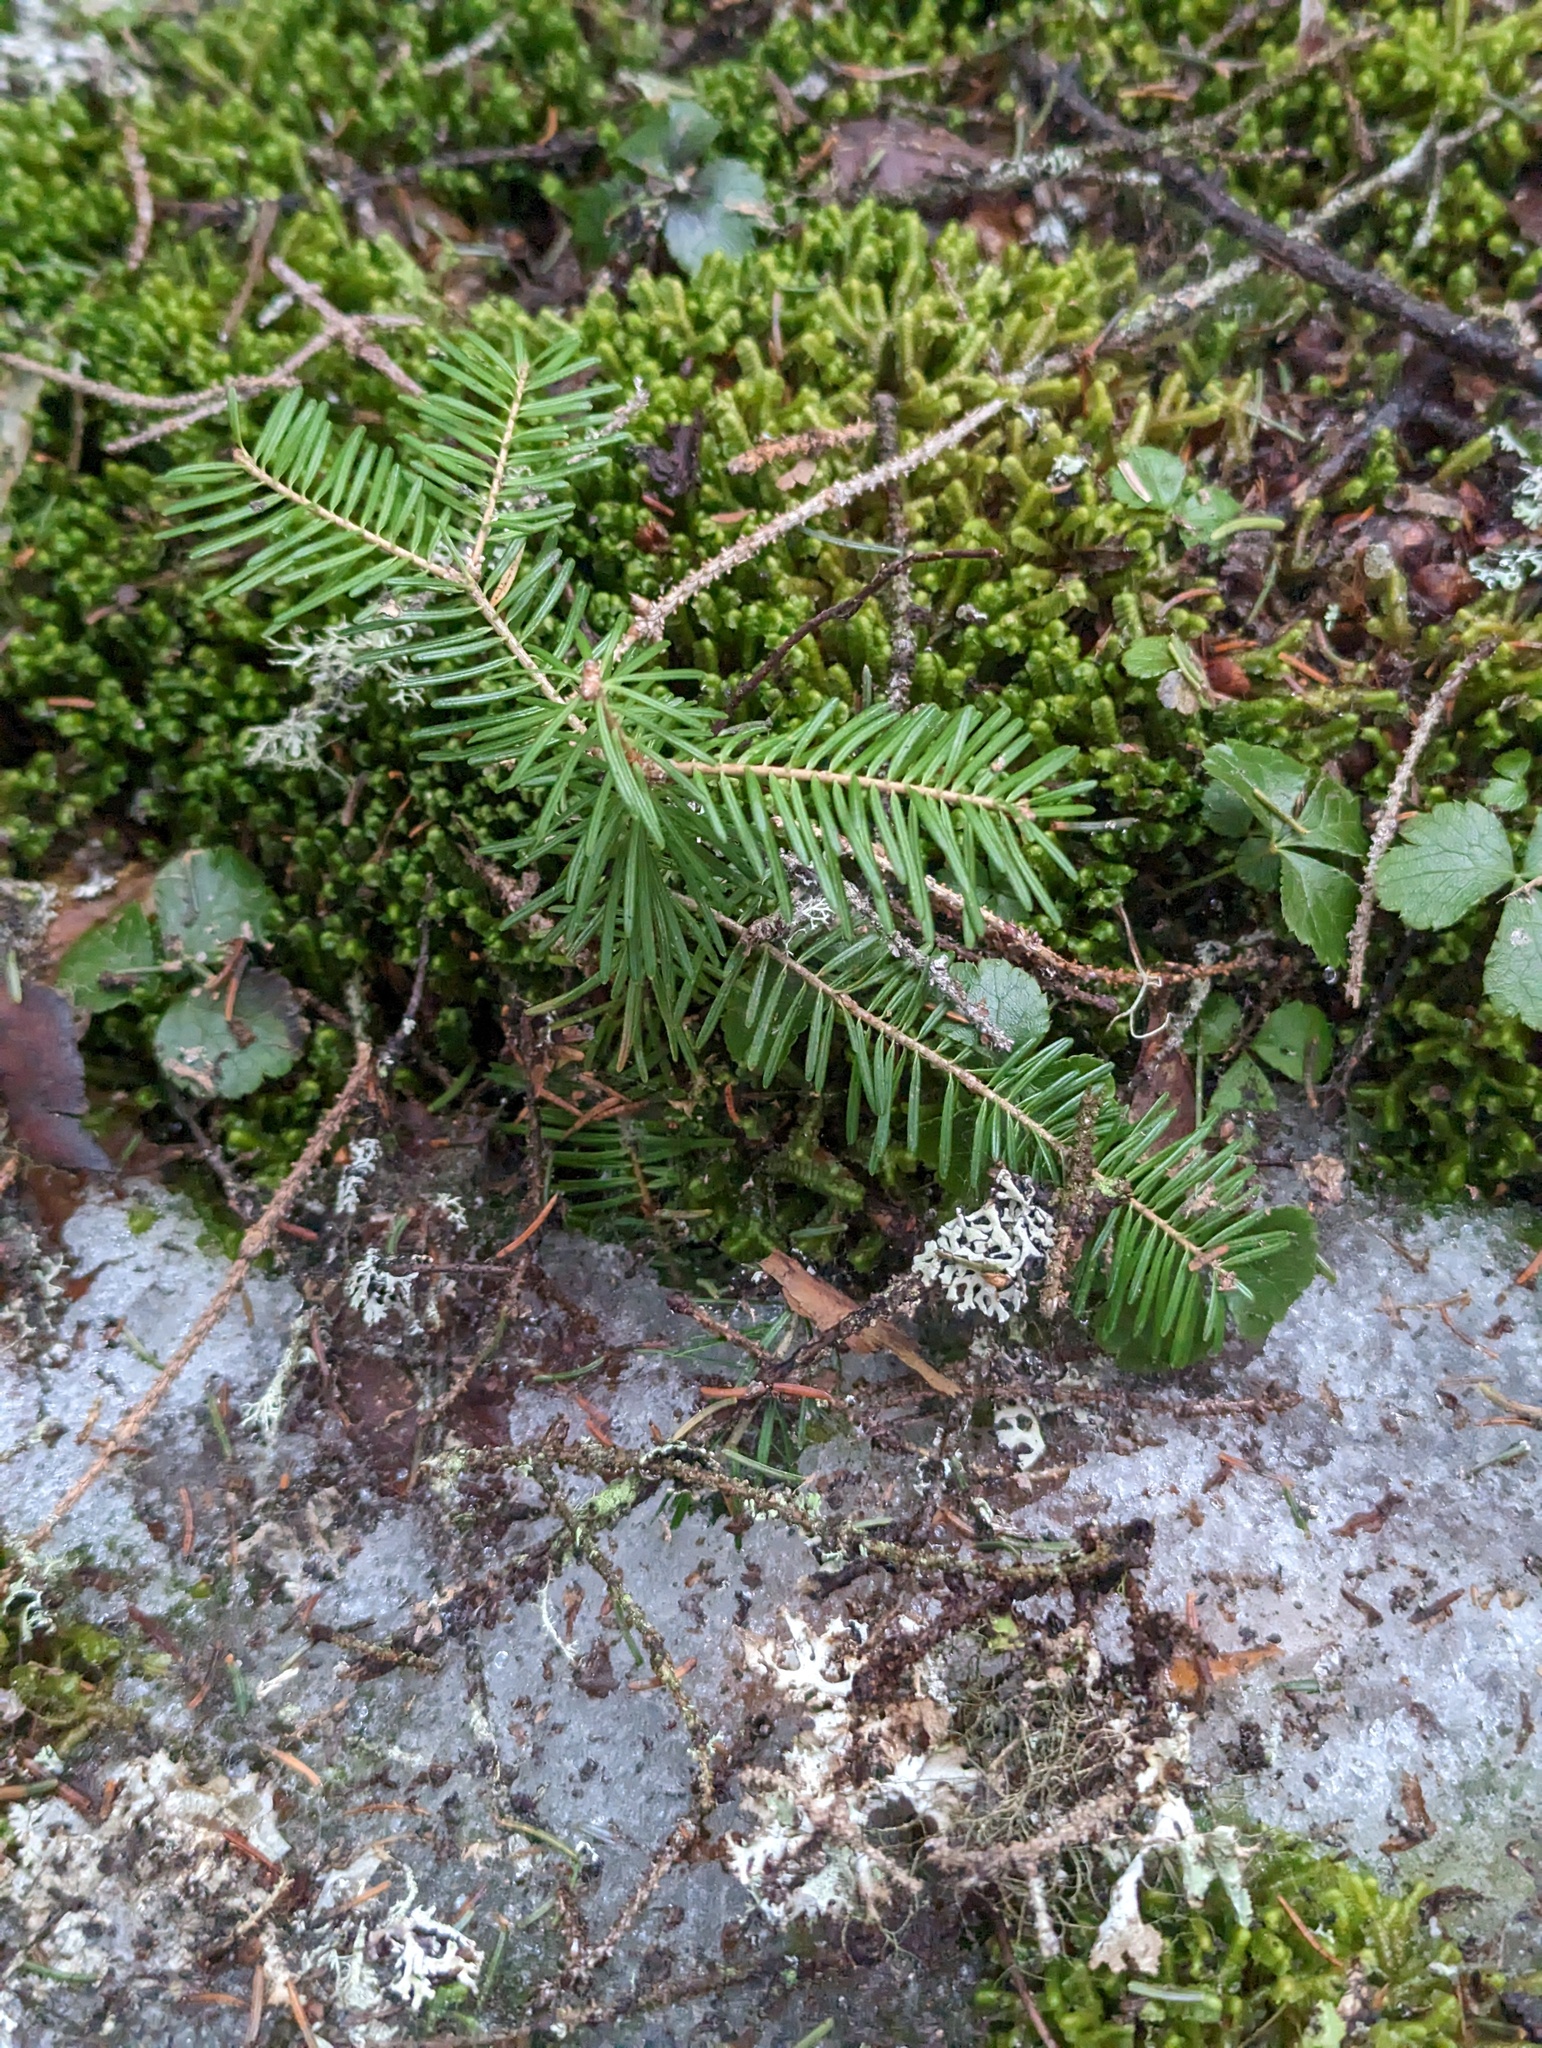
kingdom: Plantae
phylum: Tracheophyta
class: Pinopsida
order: Pinales
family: Pinaceae
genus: Abies
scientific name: Abies balsamea
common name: Balsam fir
